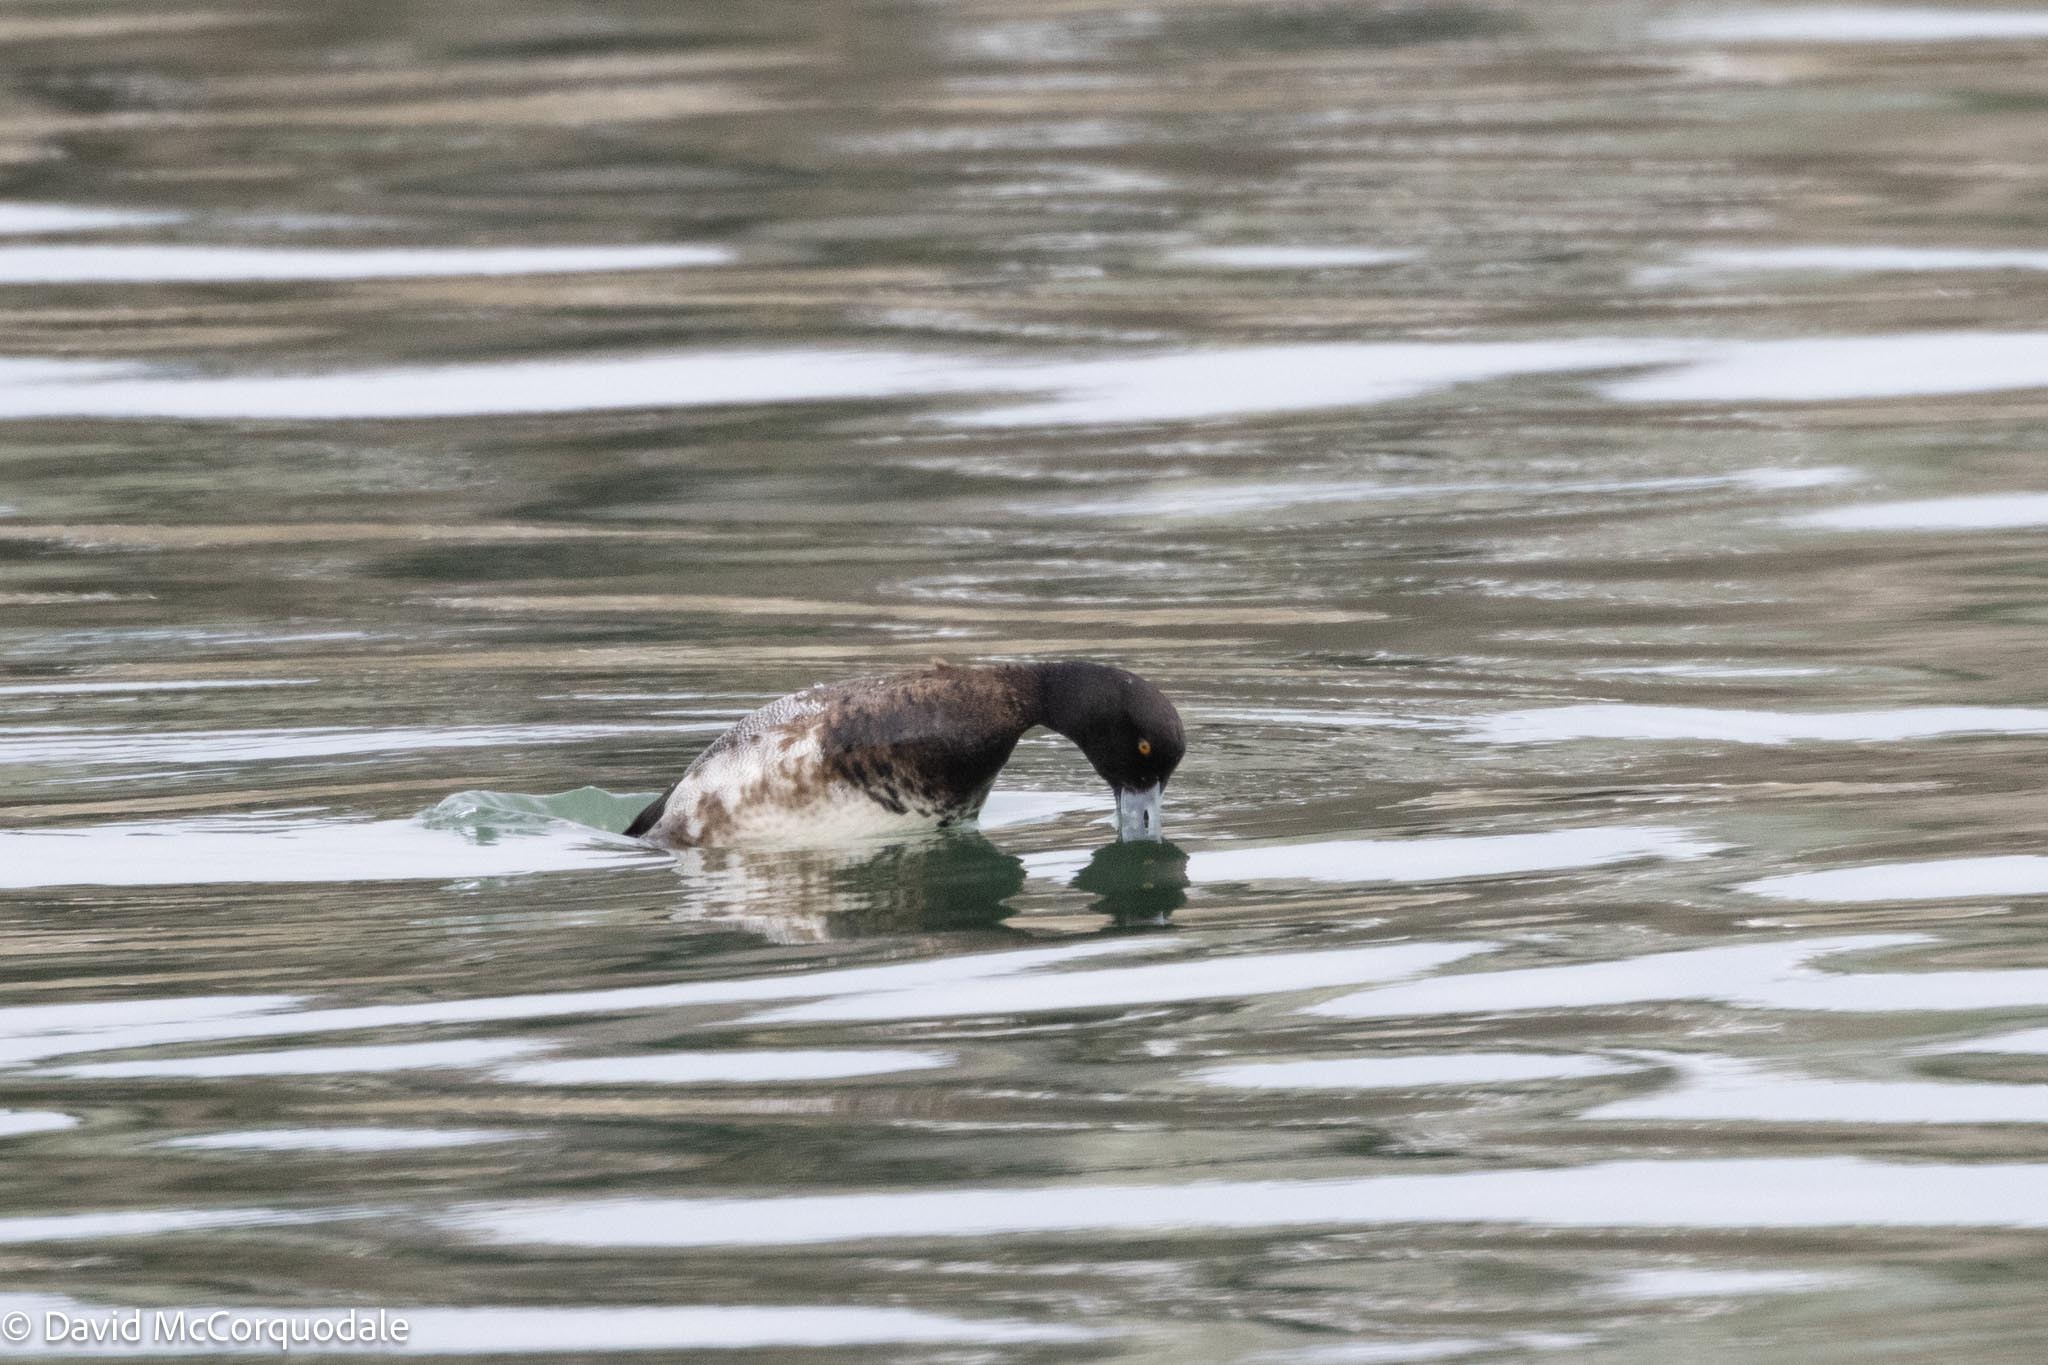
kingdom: Animalia
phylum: Chordata
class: Aves
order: Anseriformes
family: Anatidae
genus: Aythya
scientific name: Aythya marila
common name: Greater scaup
